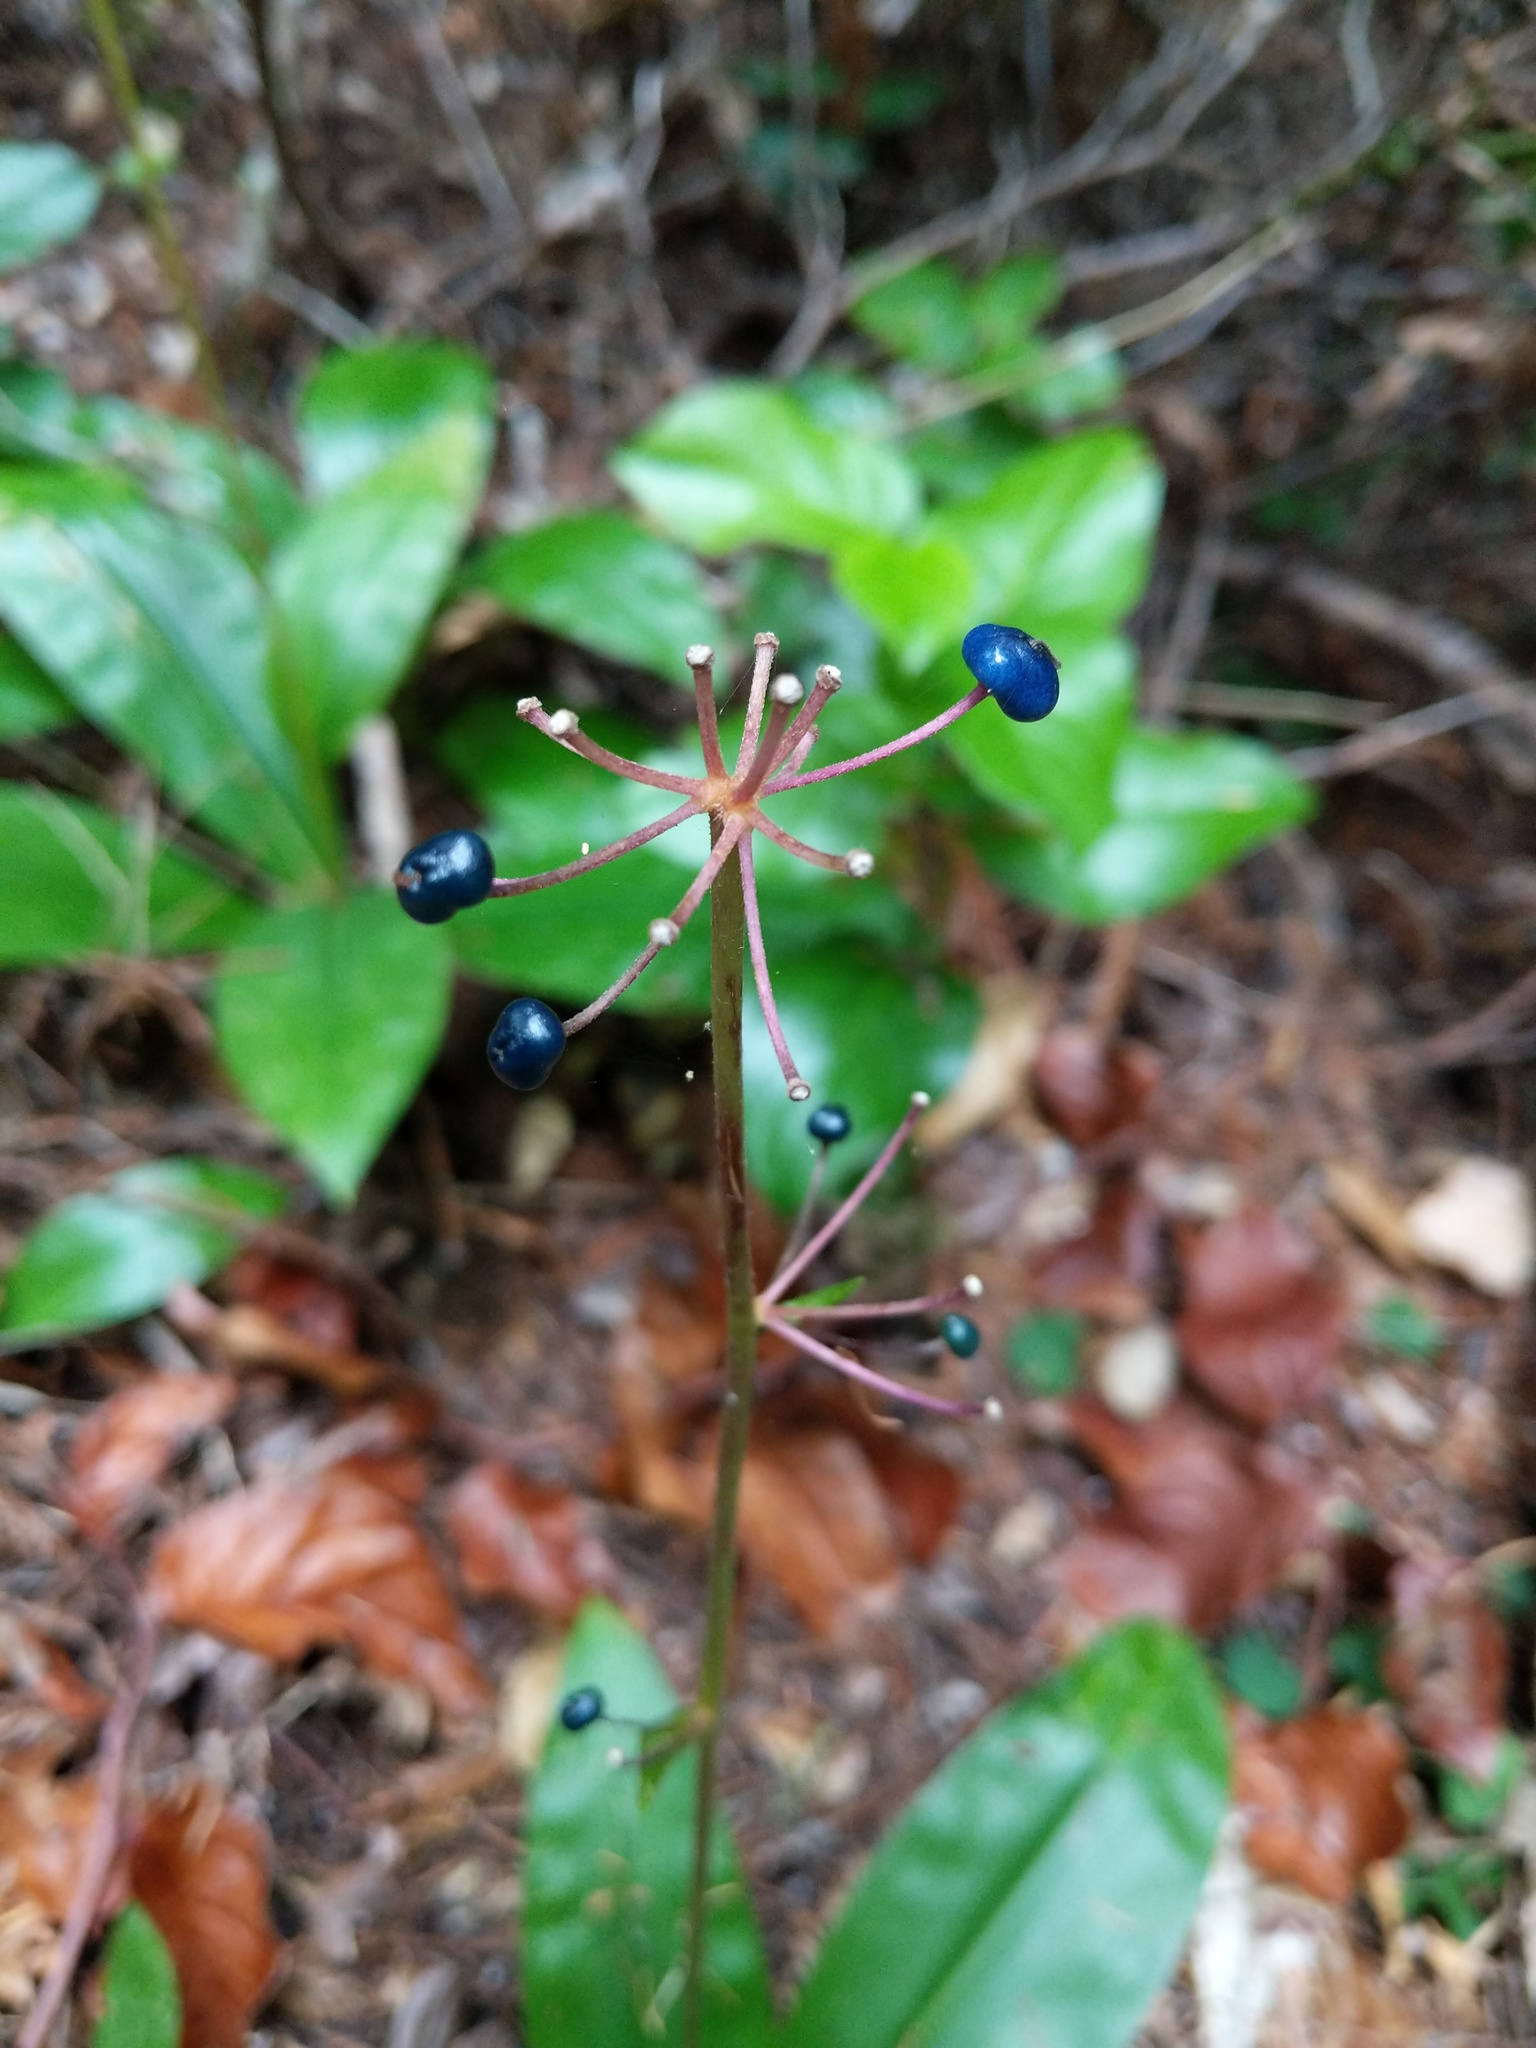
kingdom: Plantae
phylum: Tracheophyta
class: Liliopsida
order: Liliales
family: Liliaceae
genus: Clintonia
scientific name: Clintonia andrewsiana
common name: Red clintonia
